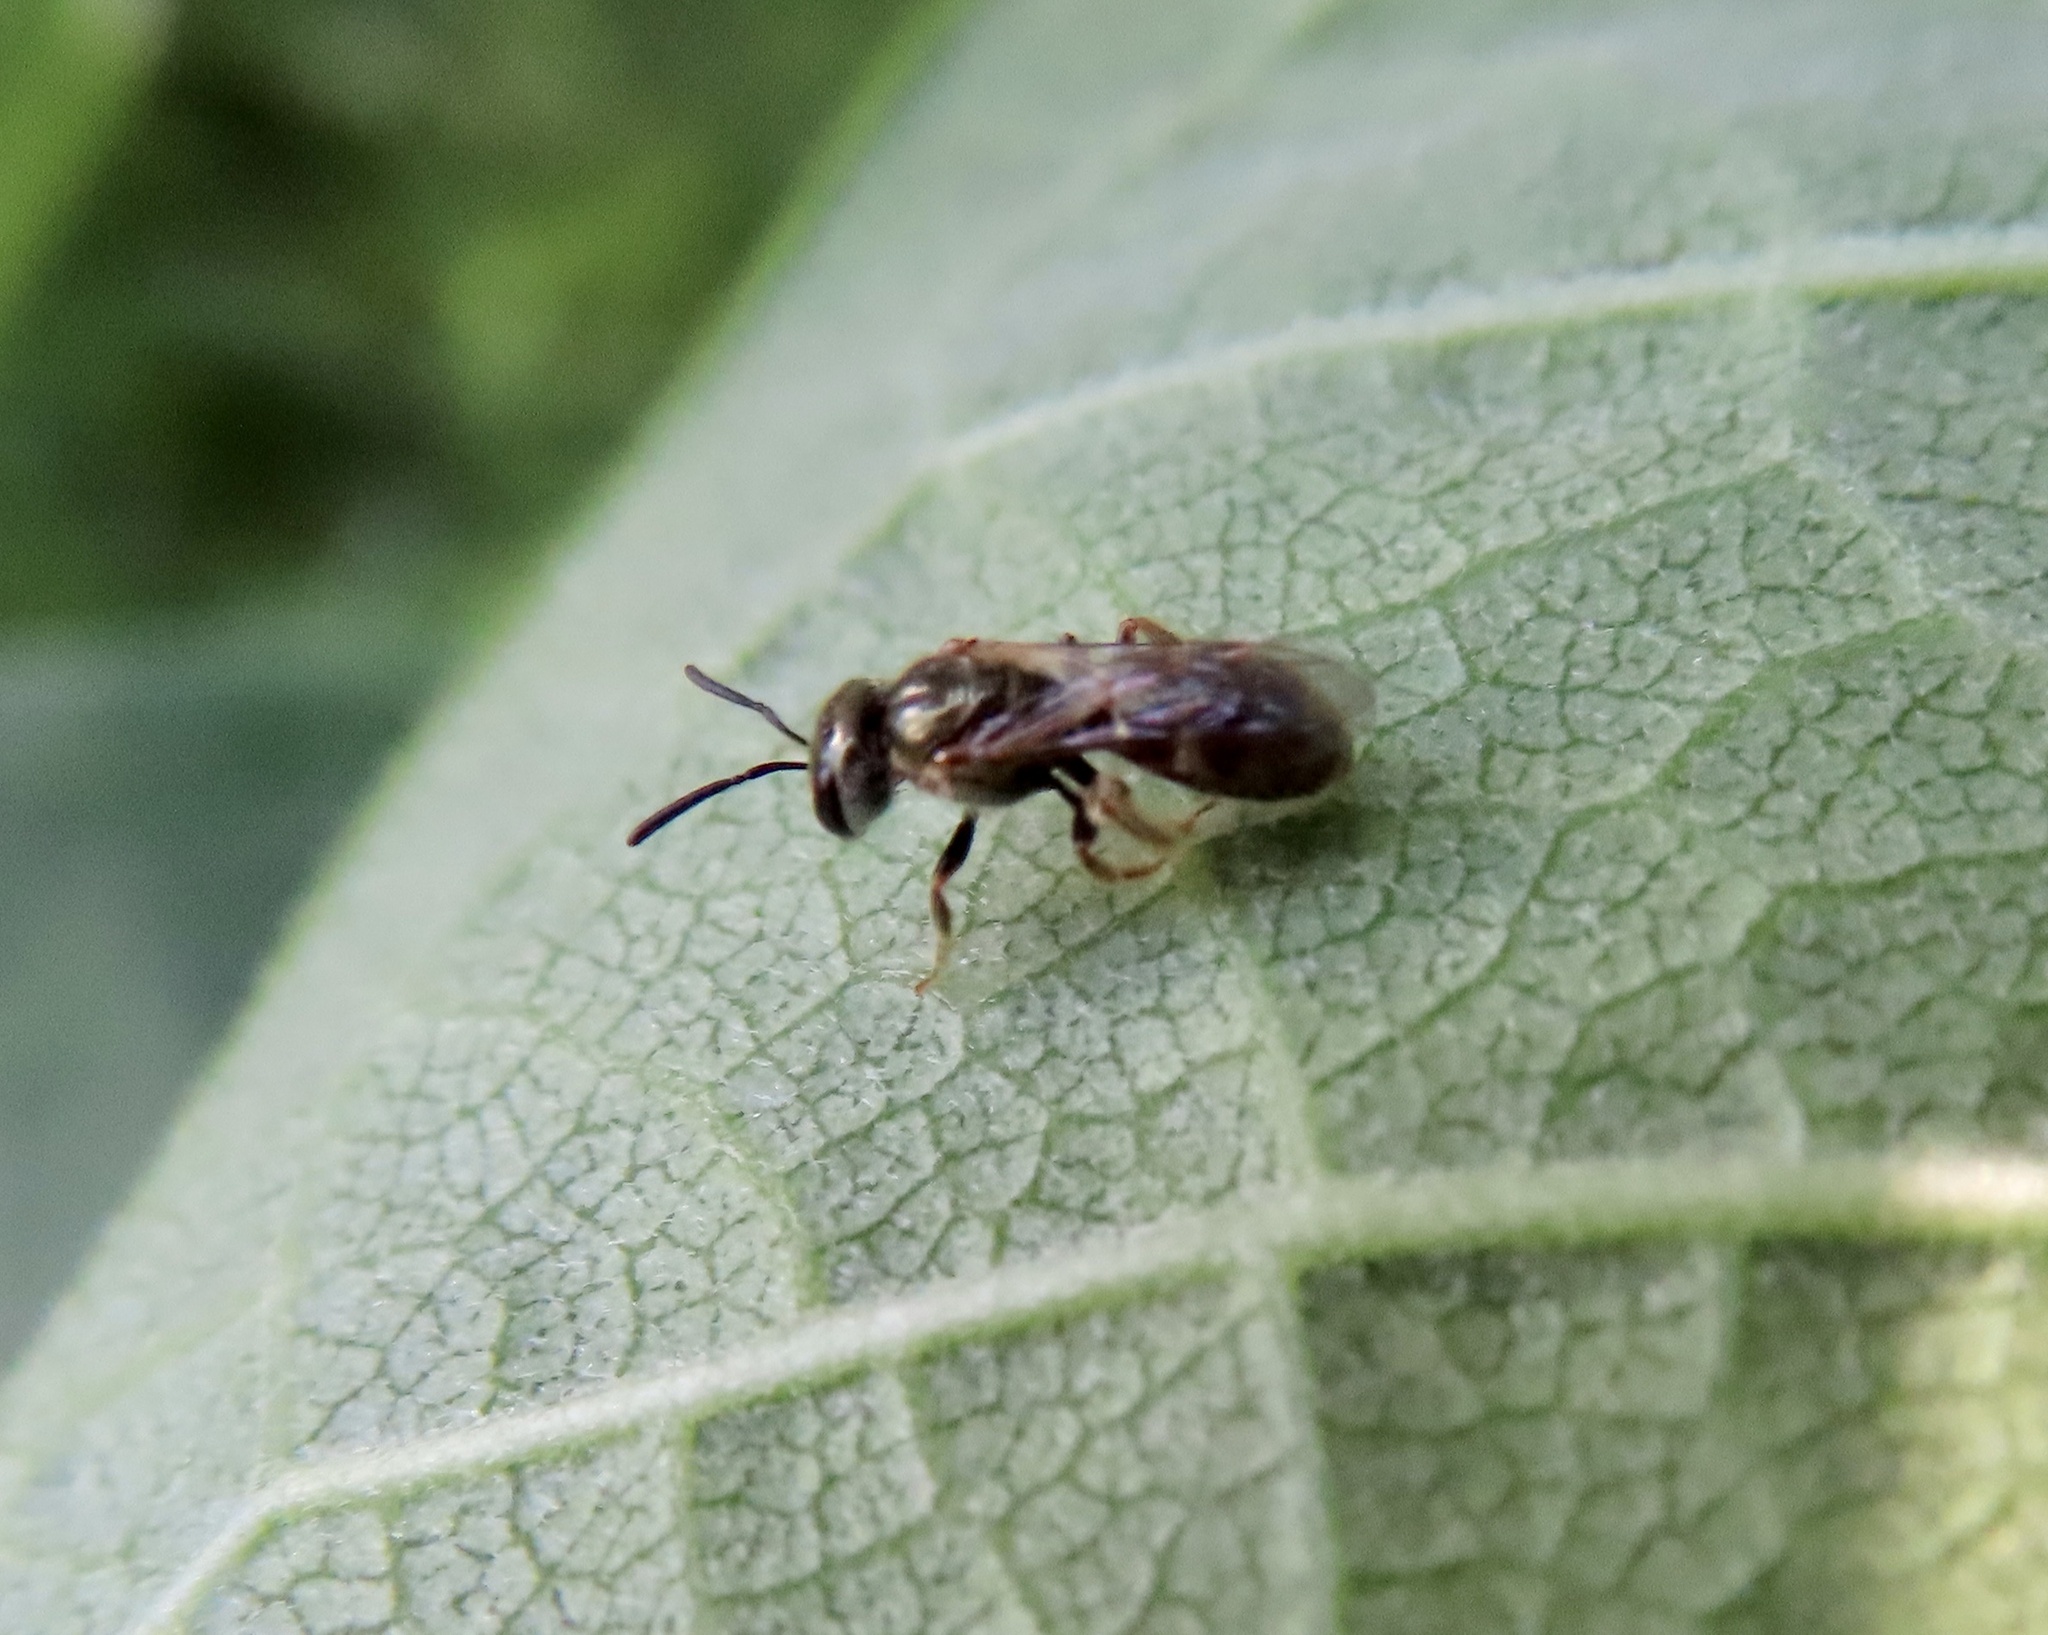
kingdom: Animalia
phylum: Arthropoda
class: Insecta
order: Hymenoptera
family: Halictidae
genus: Dialictus
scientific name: Dialictus
